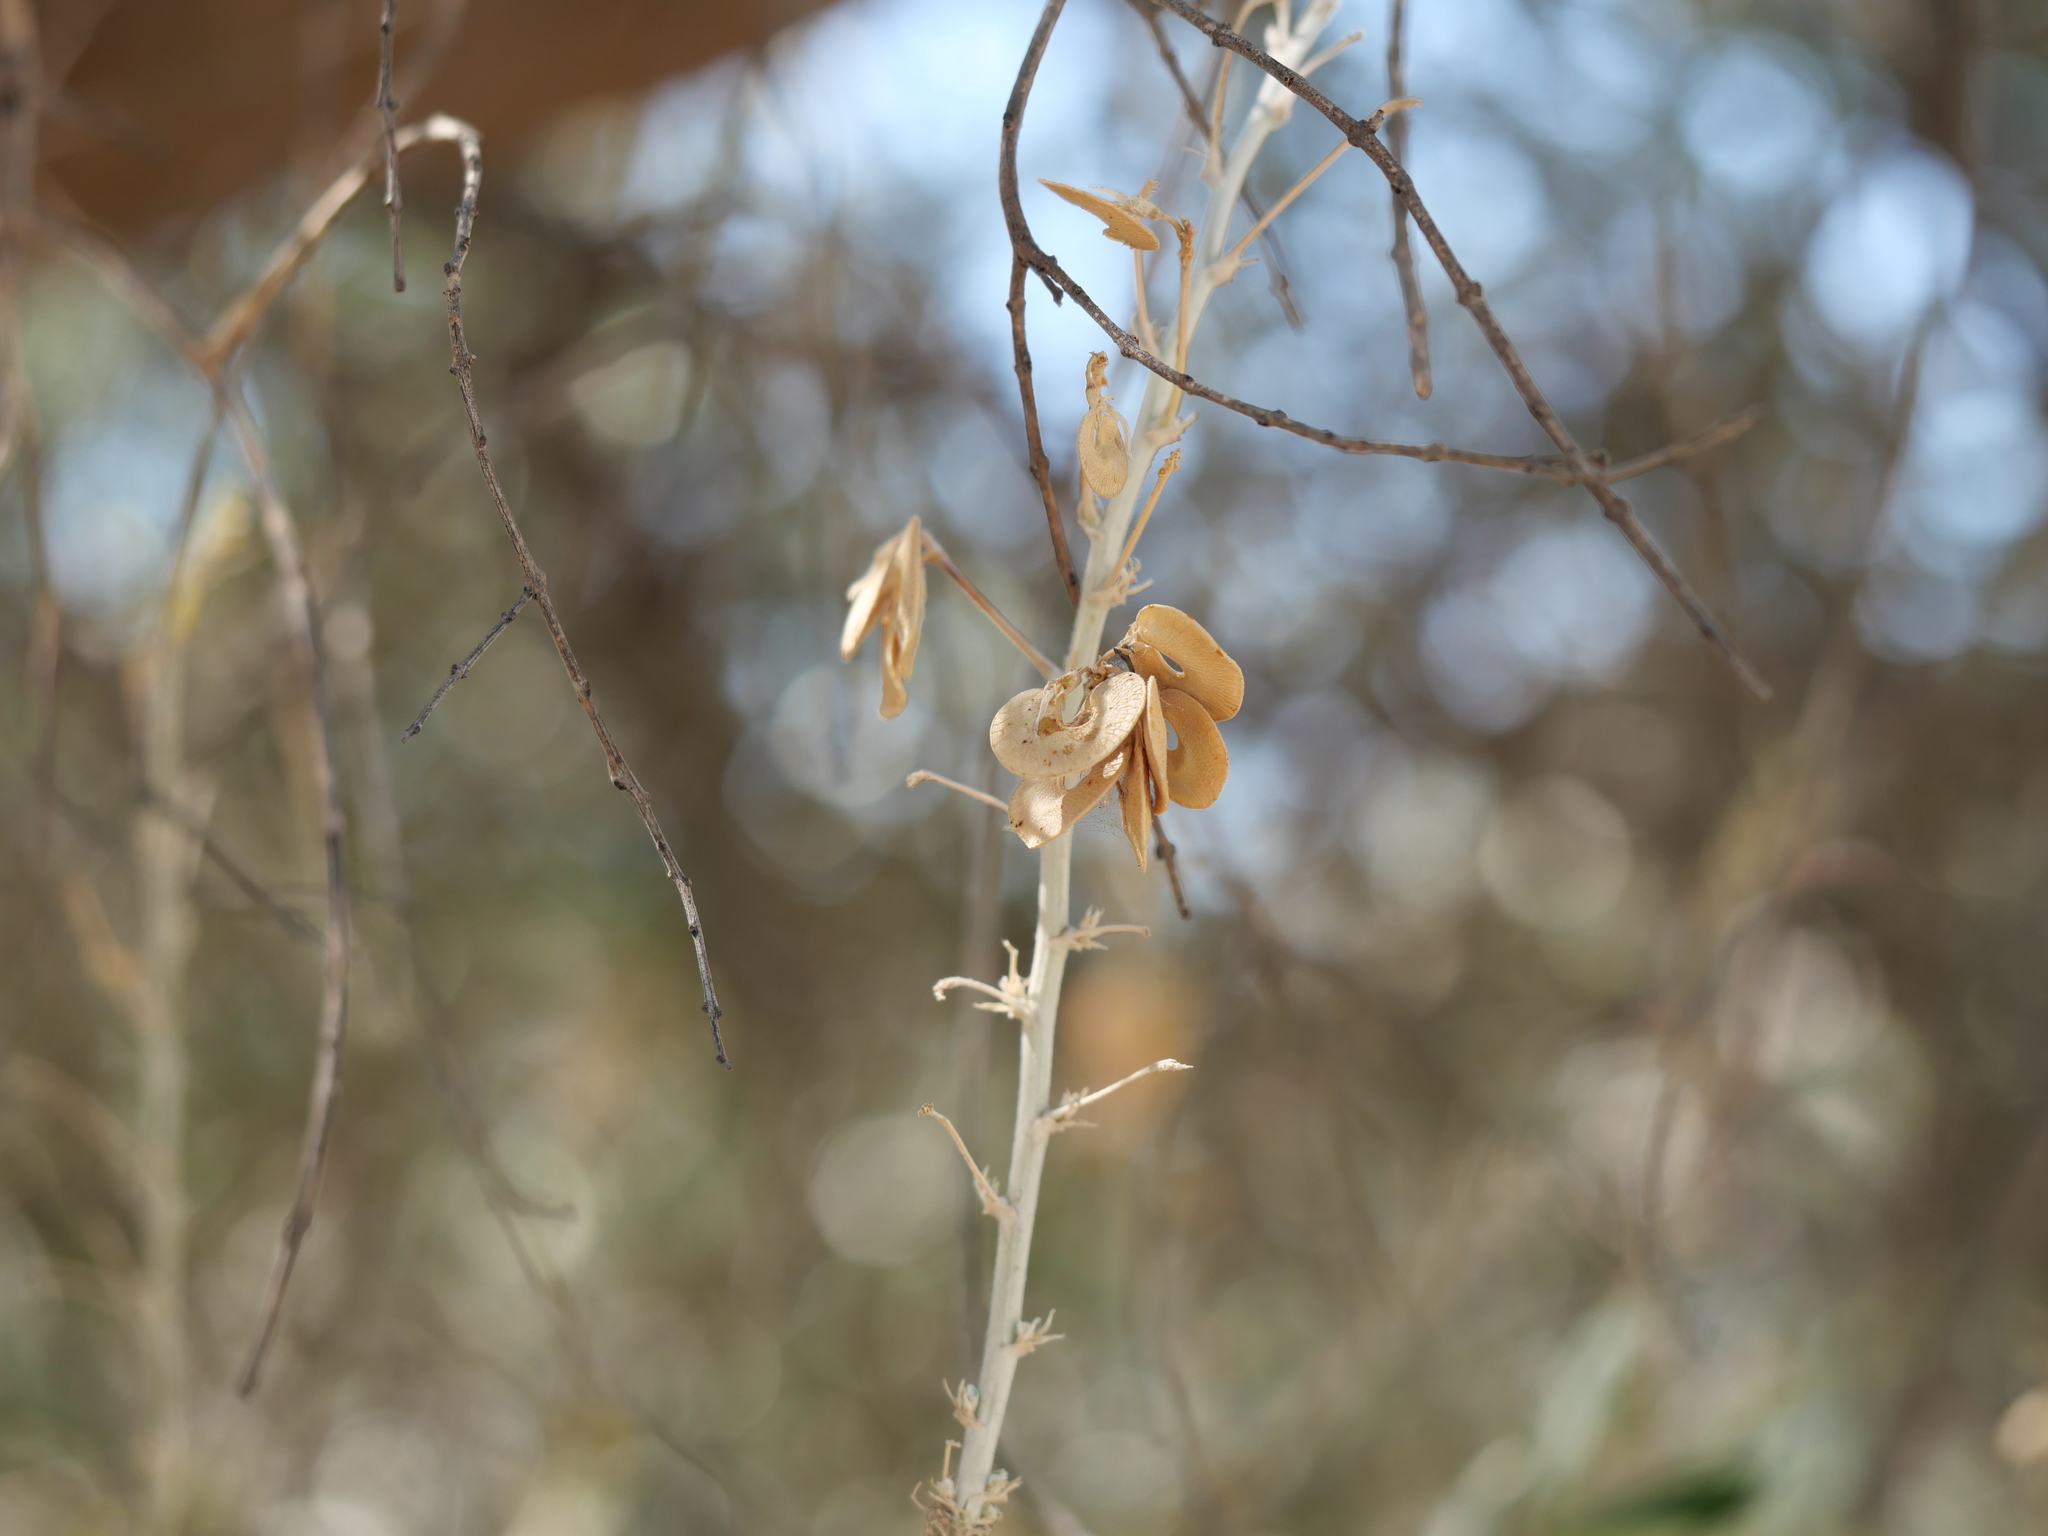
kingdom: Plantae
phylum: Tracheophyta
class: Magnoliopsida
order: Fabales
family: Fabaceae
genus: Medicago
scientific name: Medicago arborea
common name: Moon trefoil
